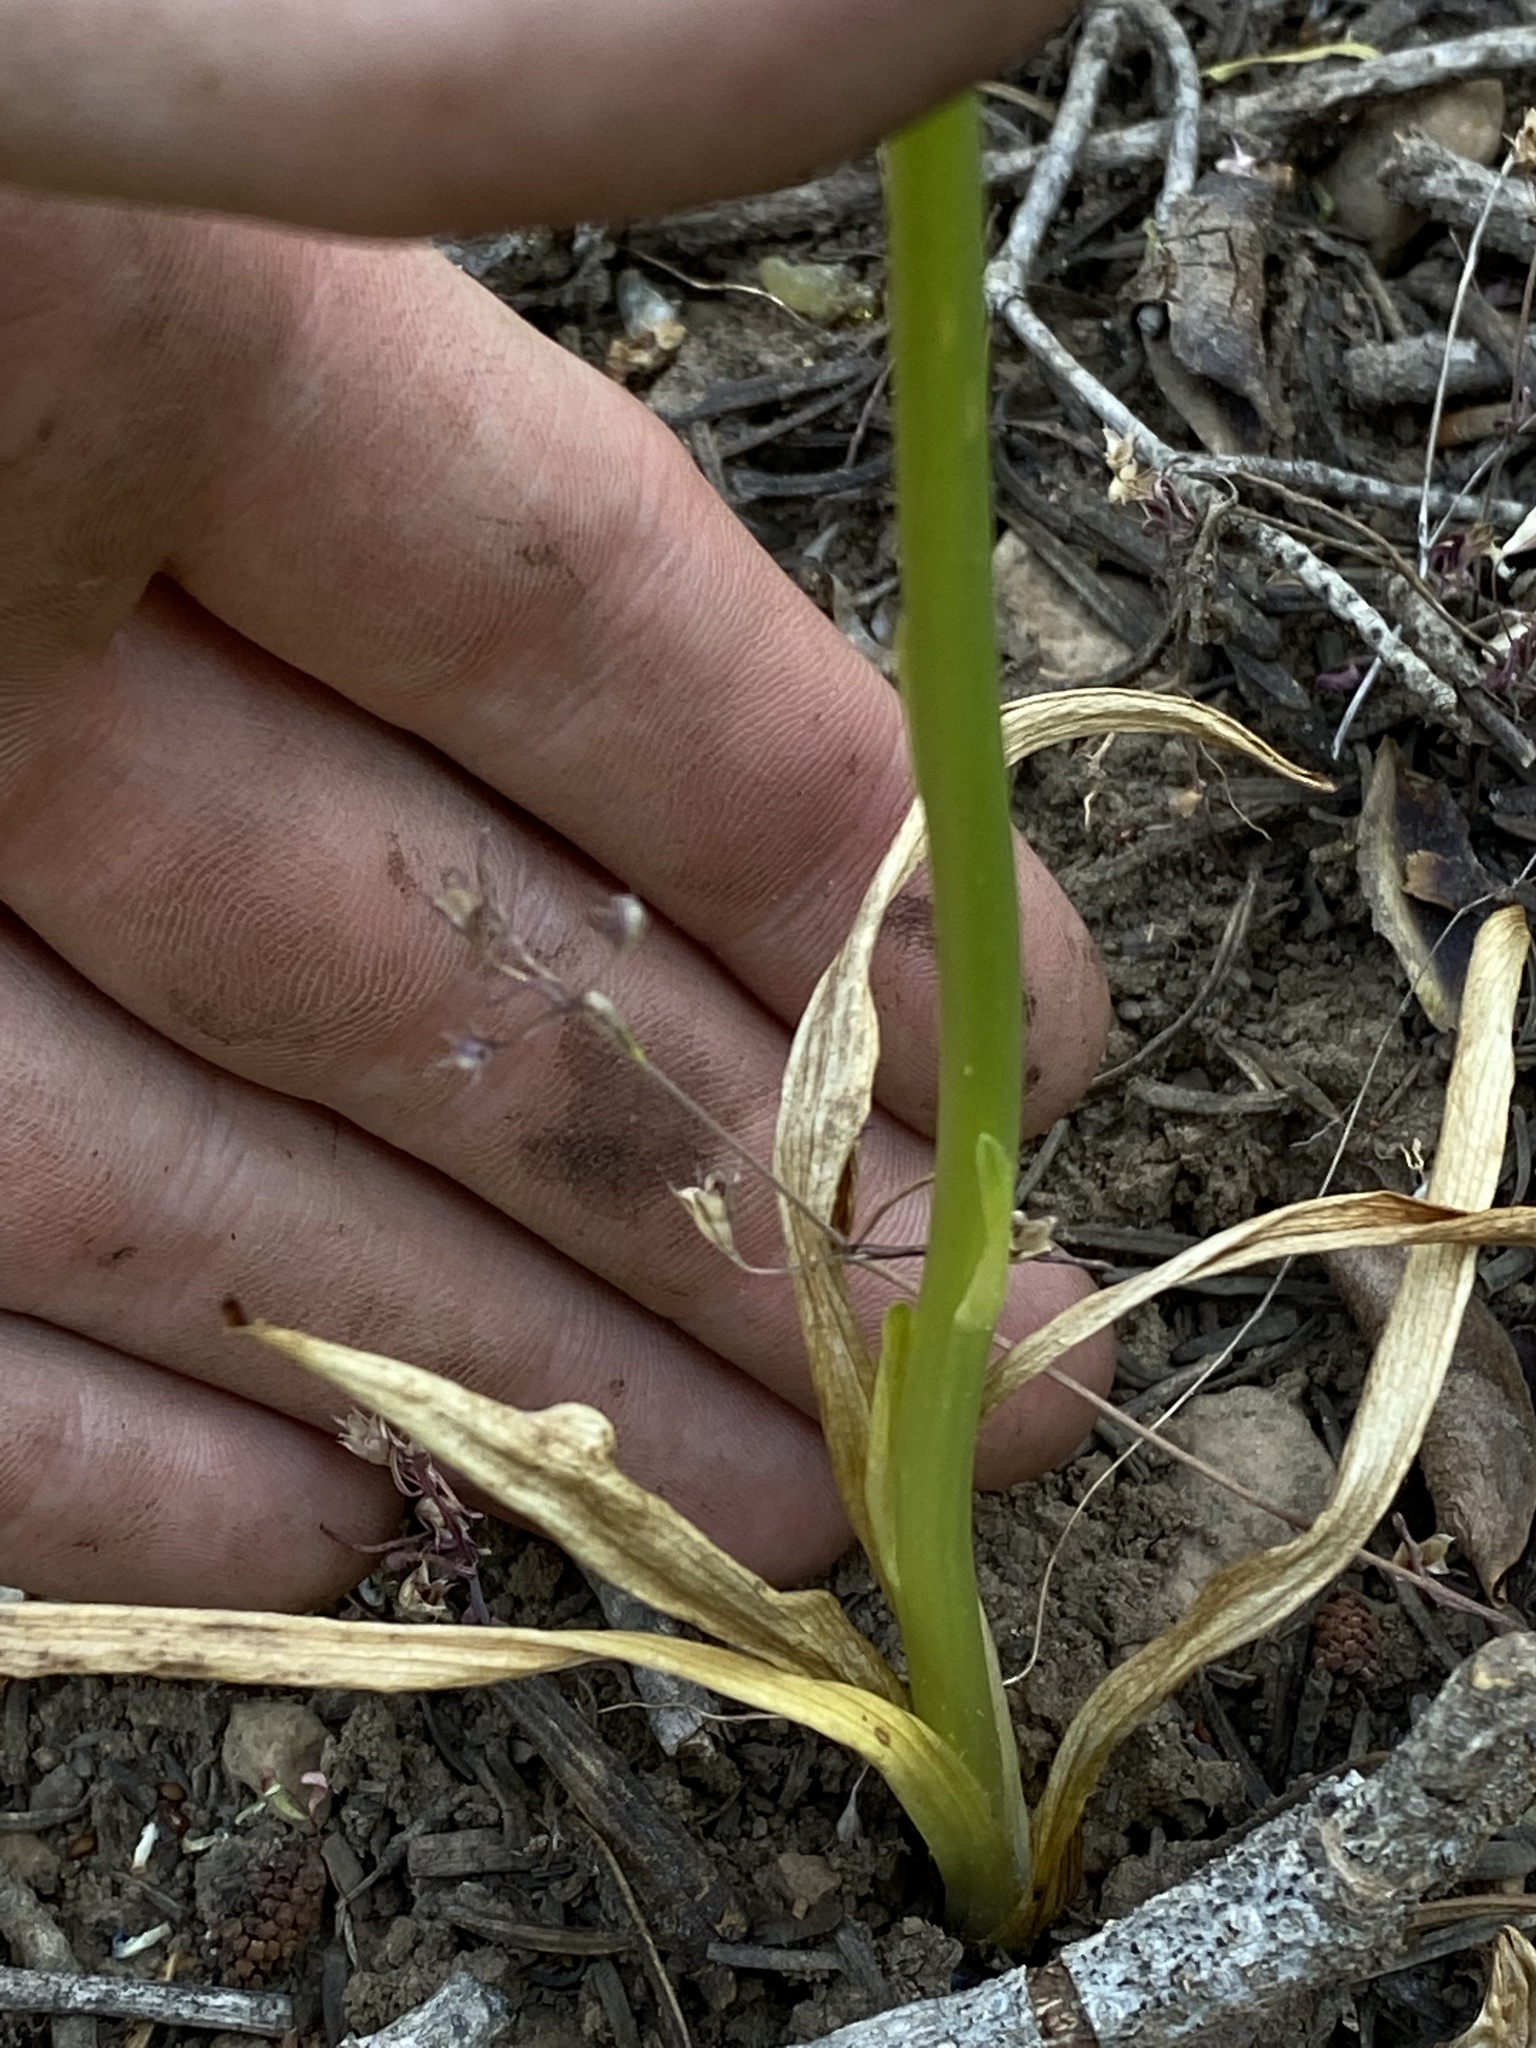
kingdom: Plantae
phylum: Tracheophyta
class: Liliopsida
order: Asparagales
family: Orchidaceae
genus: Platanthera
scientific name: Platanthera unalascensis
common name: Alaska bog orchid
